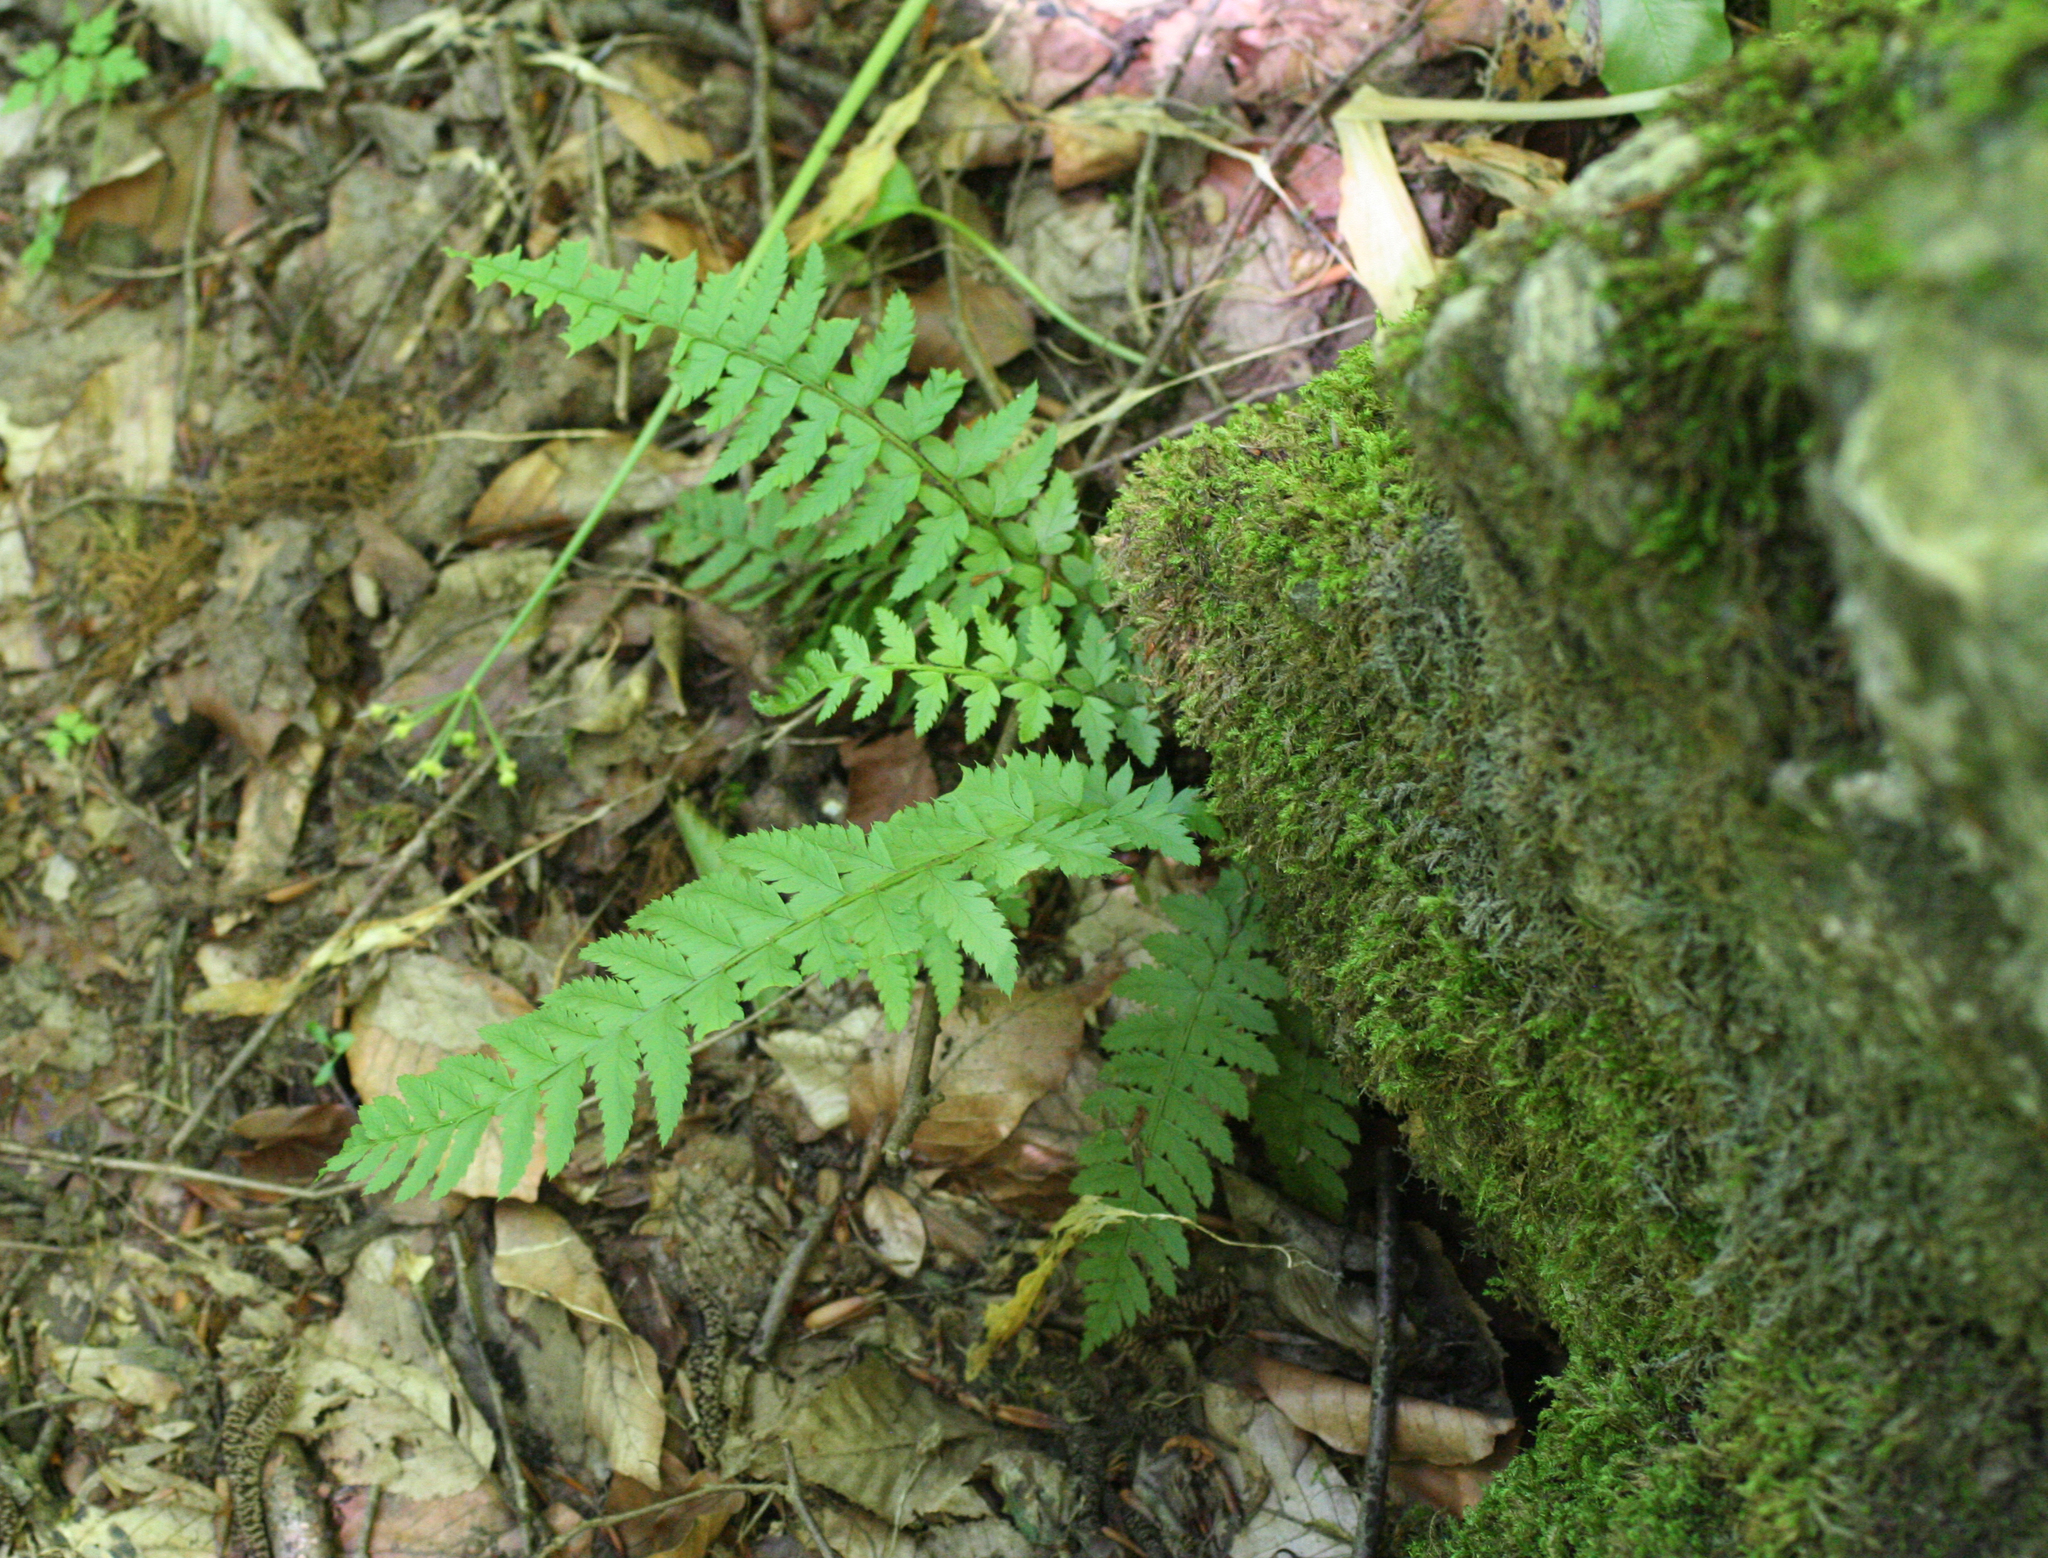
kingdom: Plantae
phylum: Tracheophyta
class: Polypodiopsida
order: Polypodiales
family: Dryopteridaceae
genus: Polystichum
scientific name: Polystichum aculeatum
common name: Hard shield-fern
